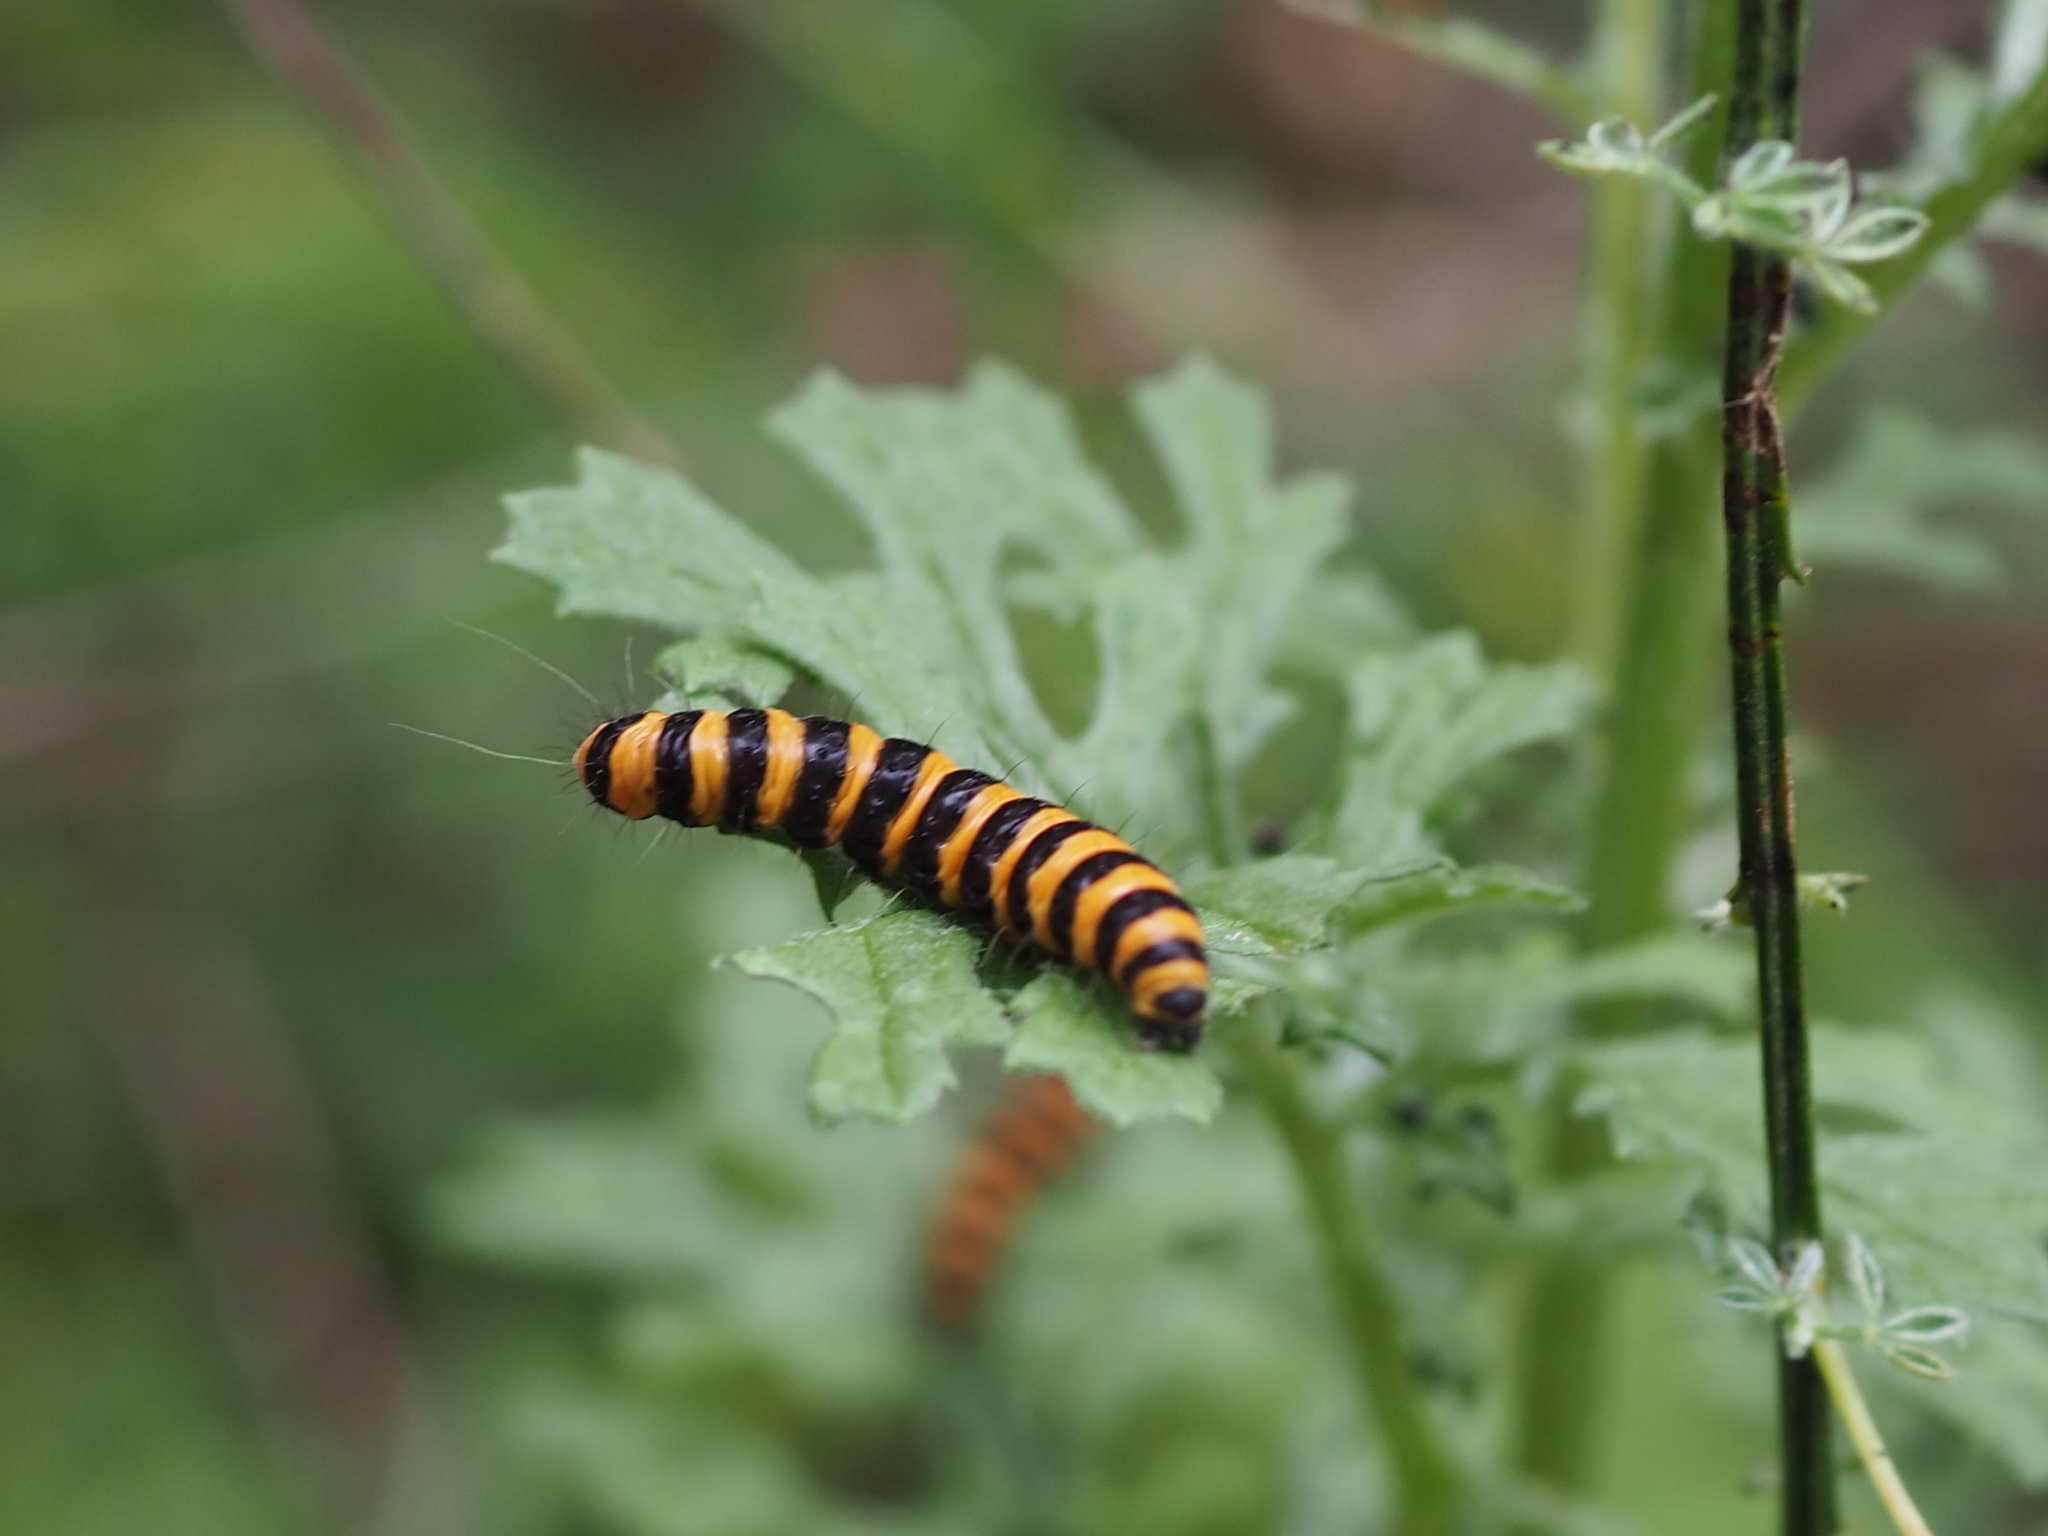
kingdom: Animalia
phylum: Arthropoda
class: Insecta
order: Lepidoptera
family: Erebidae
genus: Tyria
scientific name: Tyria jacobaeae
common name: Cinnabar
